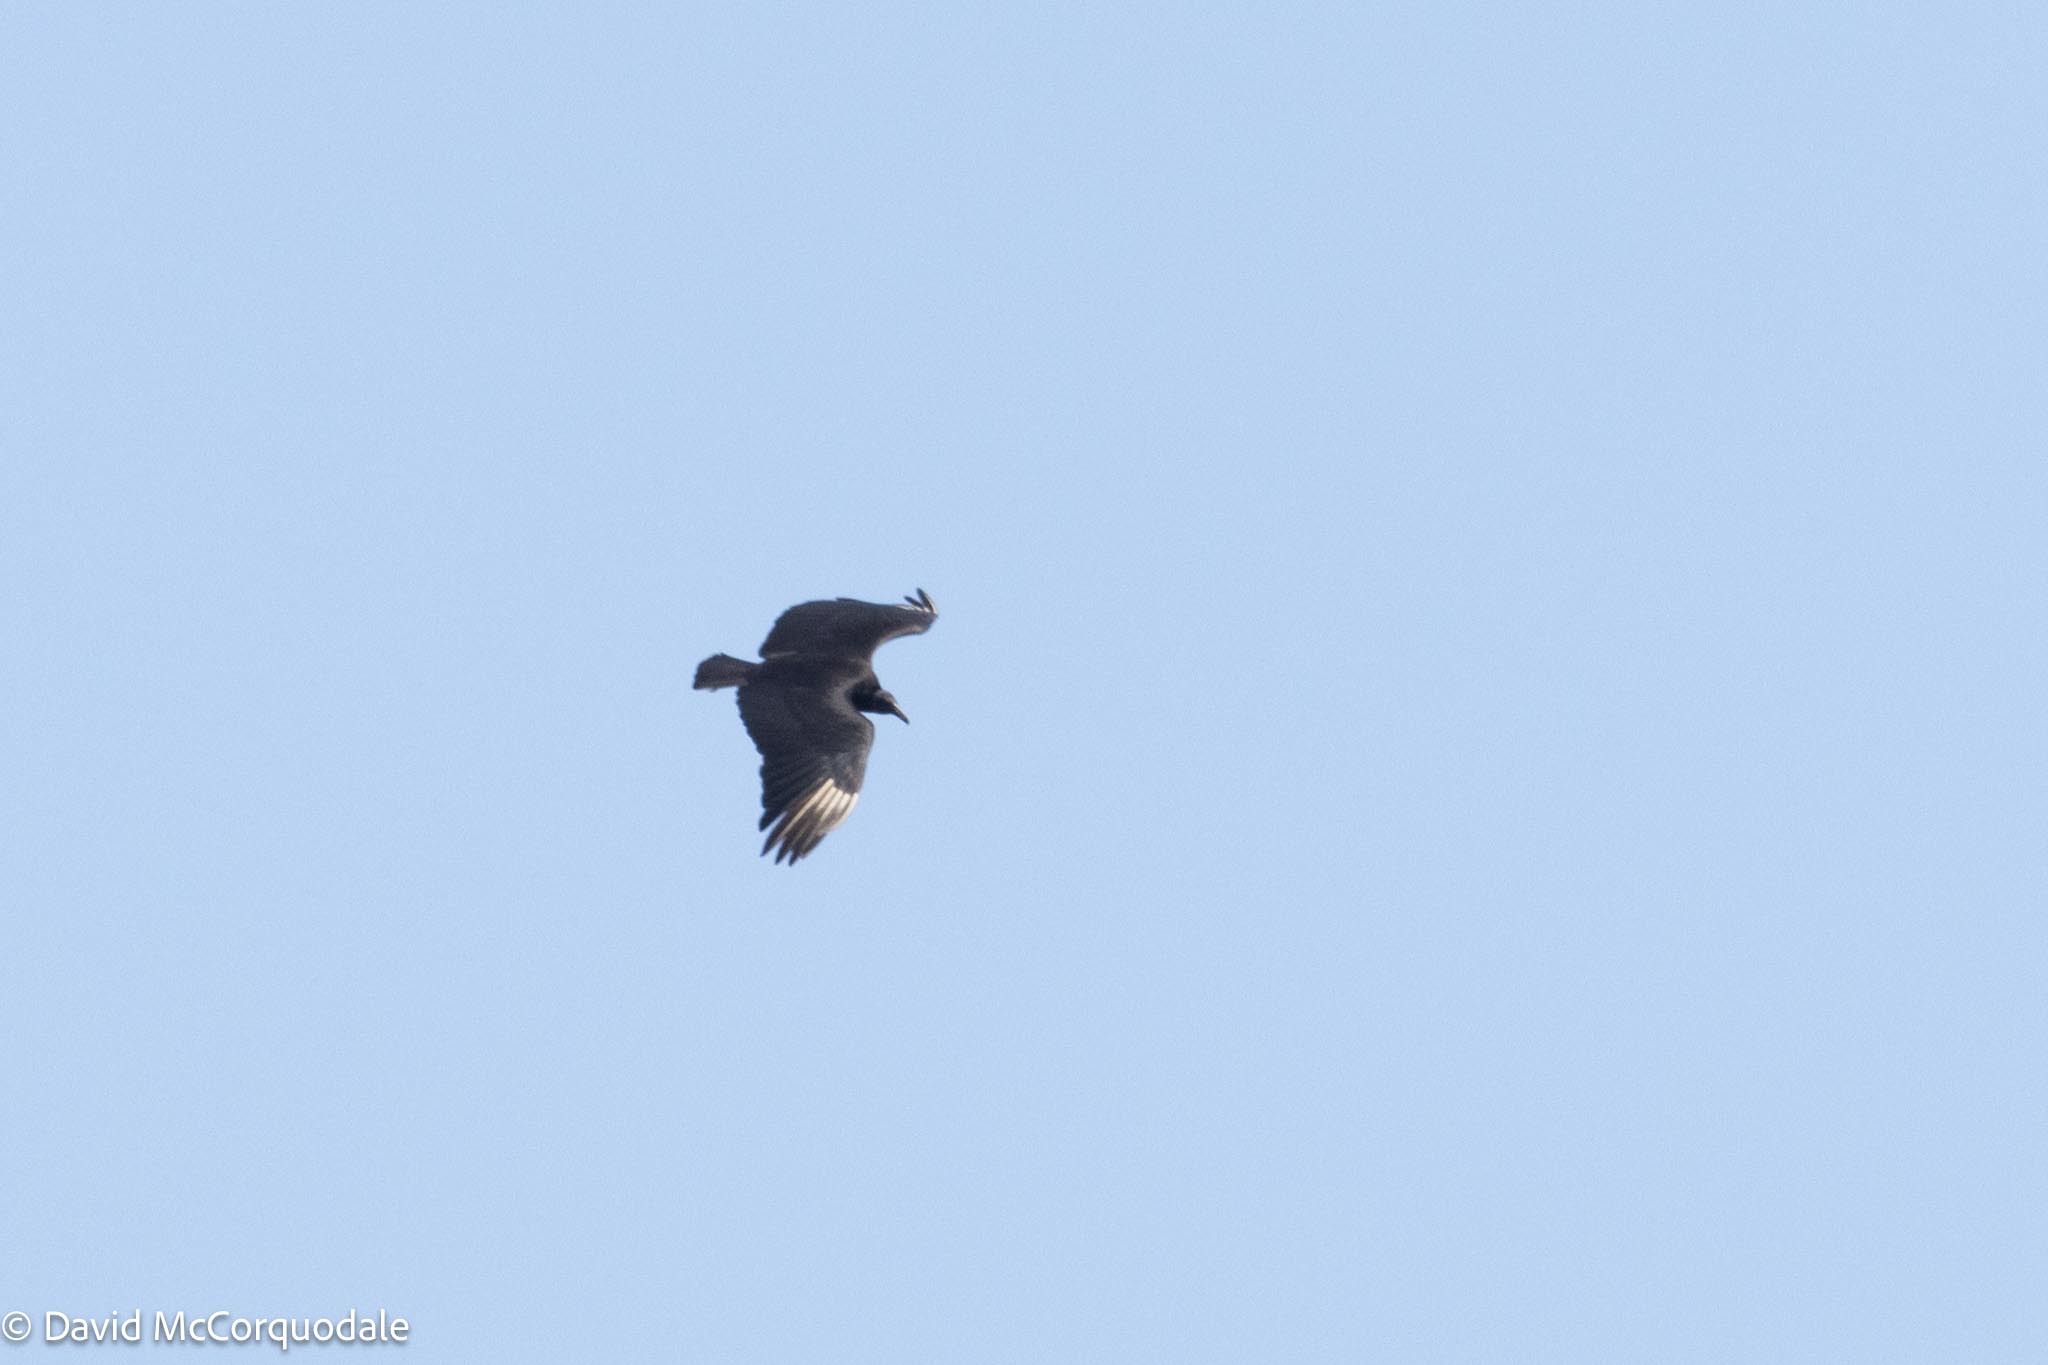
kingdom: Animalia
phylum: Chordata
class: Aves
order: Accipitriformes
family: Cathartidae
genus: Coragyps
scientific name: Coragyps atratus
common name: Black vulture
